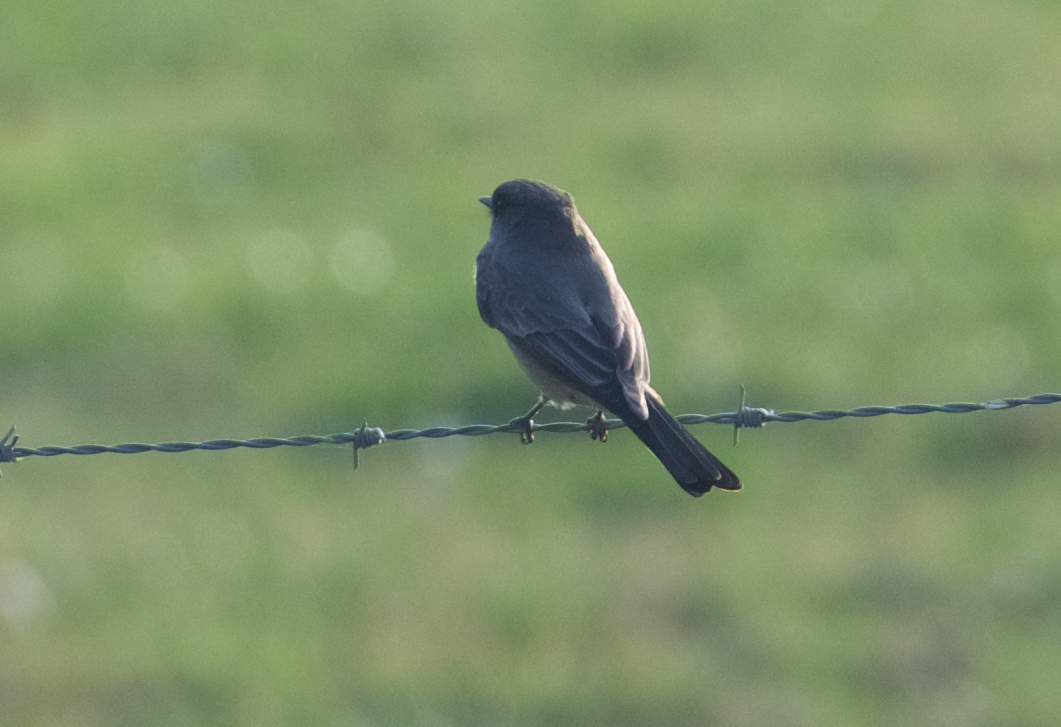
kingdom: Animalia
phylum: Chordata
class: Aves
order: Passeriformes
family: Tyrannidae
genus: Sayornis
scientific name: Sayornis saya
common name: Say's phoebe
